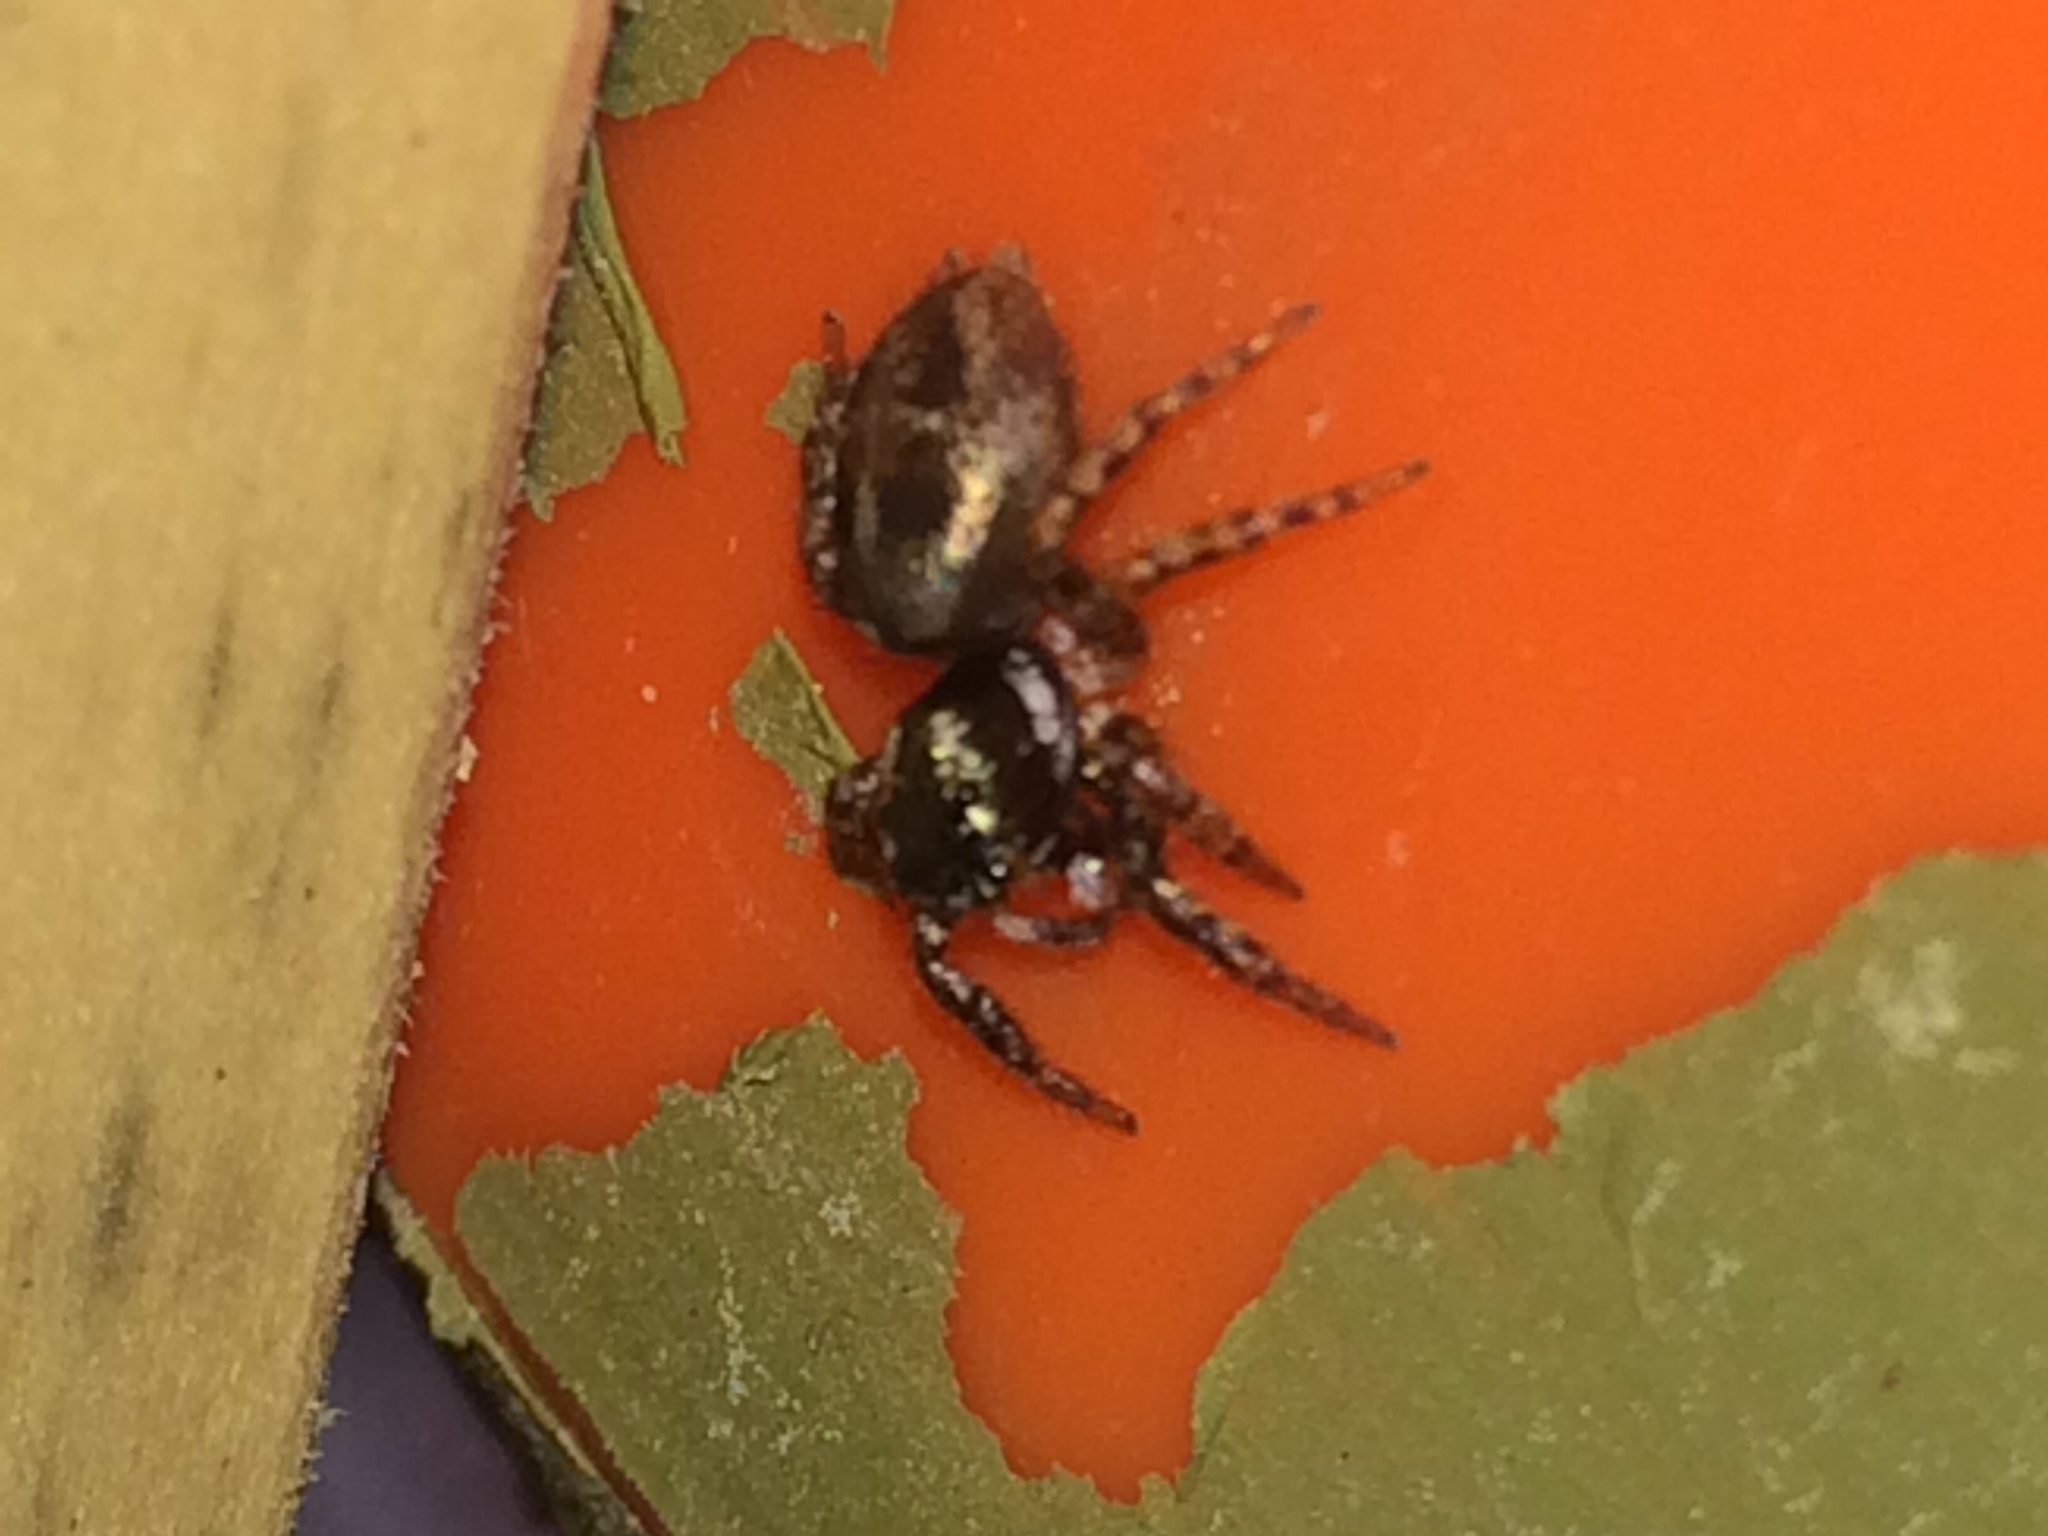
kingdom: Animalia
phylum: Arthropoda
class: Arachnida
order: Araneae
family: Salticidae
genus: Anasaitis
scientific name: Anasaitis canosa
